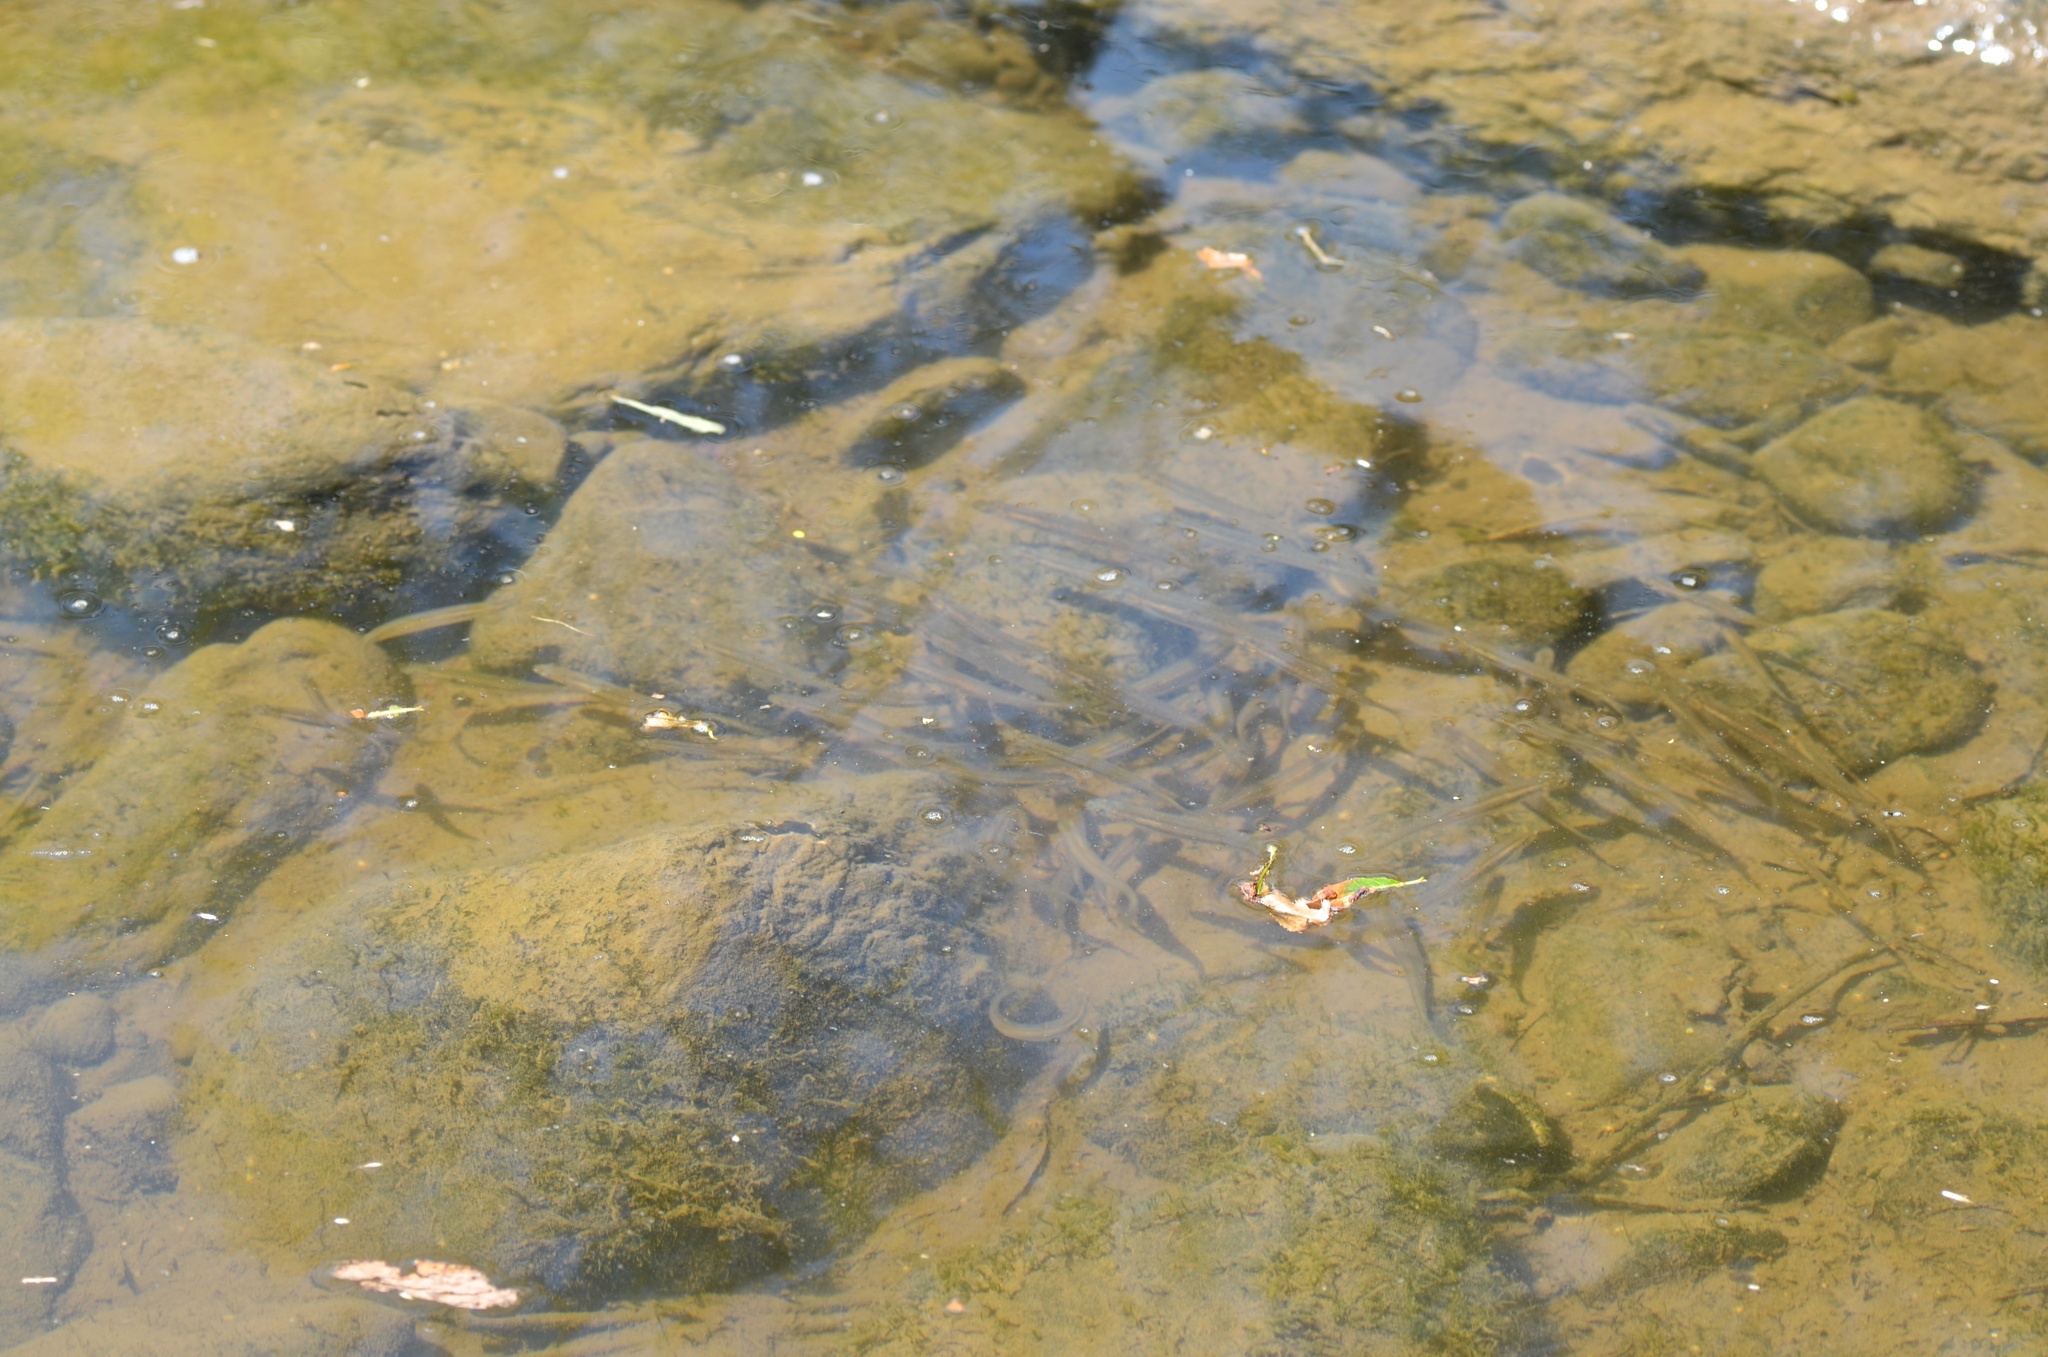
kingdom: Animalia
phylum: Chordata
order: Osmeriformes
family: Galaxiidae
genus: Galaxias
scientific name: Galaxias maculatus
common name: Common galaxias
